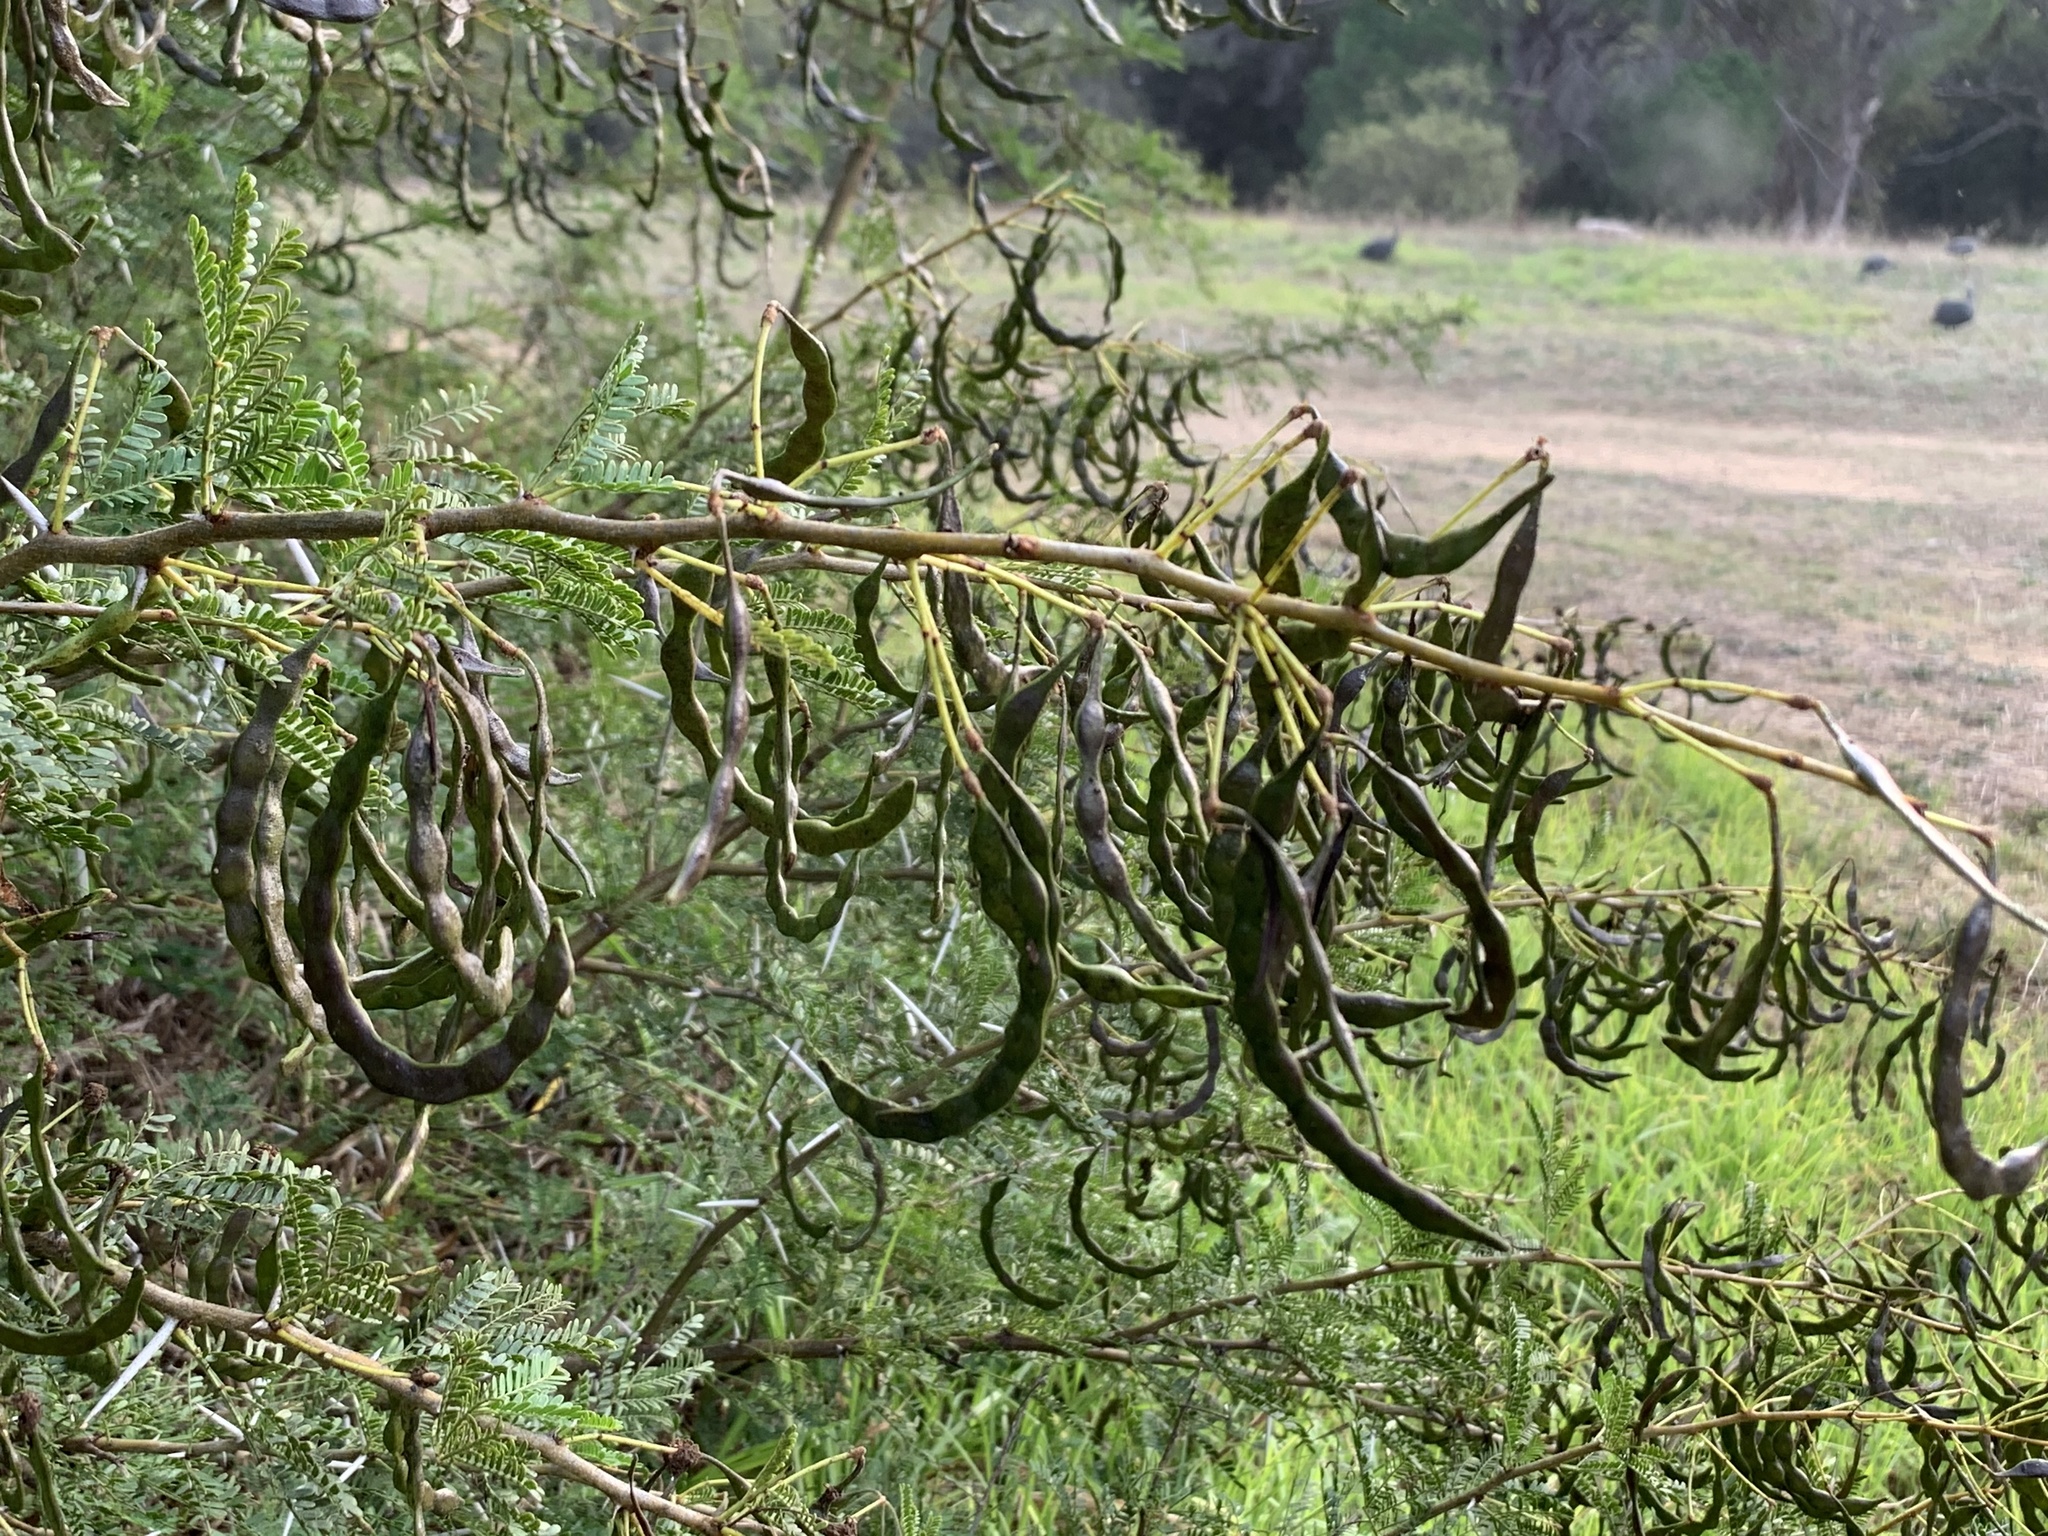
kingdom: Plantae
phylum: Tracheophyta
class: Magnoliopsida
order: Fabales
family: Fabaceae
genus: Vachellia
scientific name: Vachellia karroo
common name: Sweet thorn
